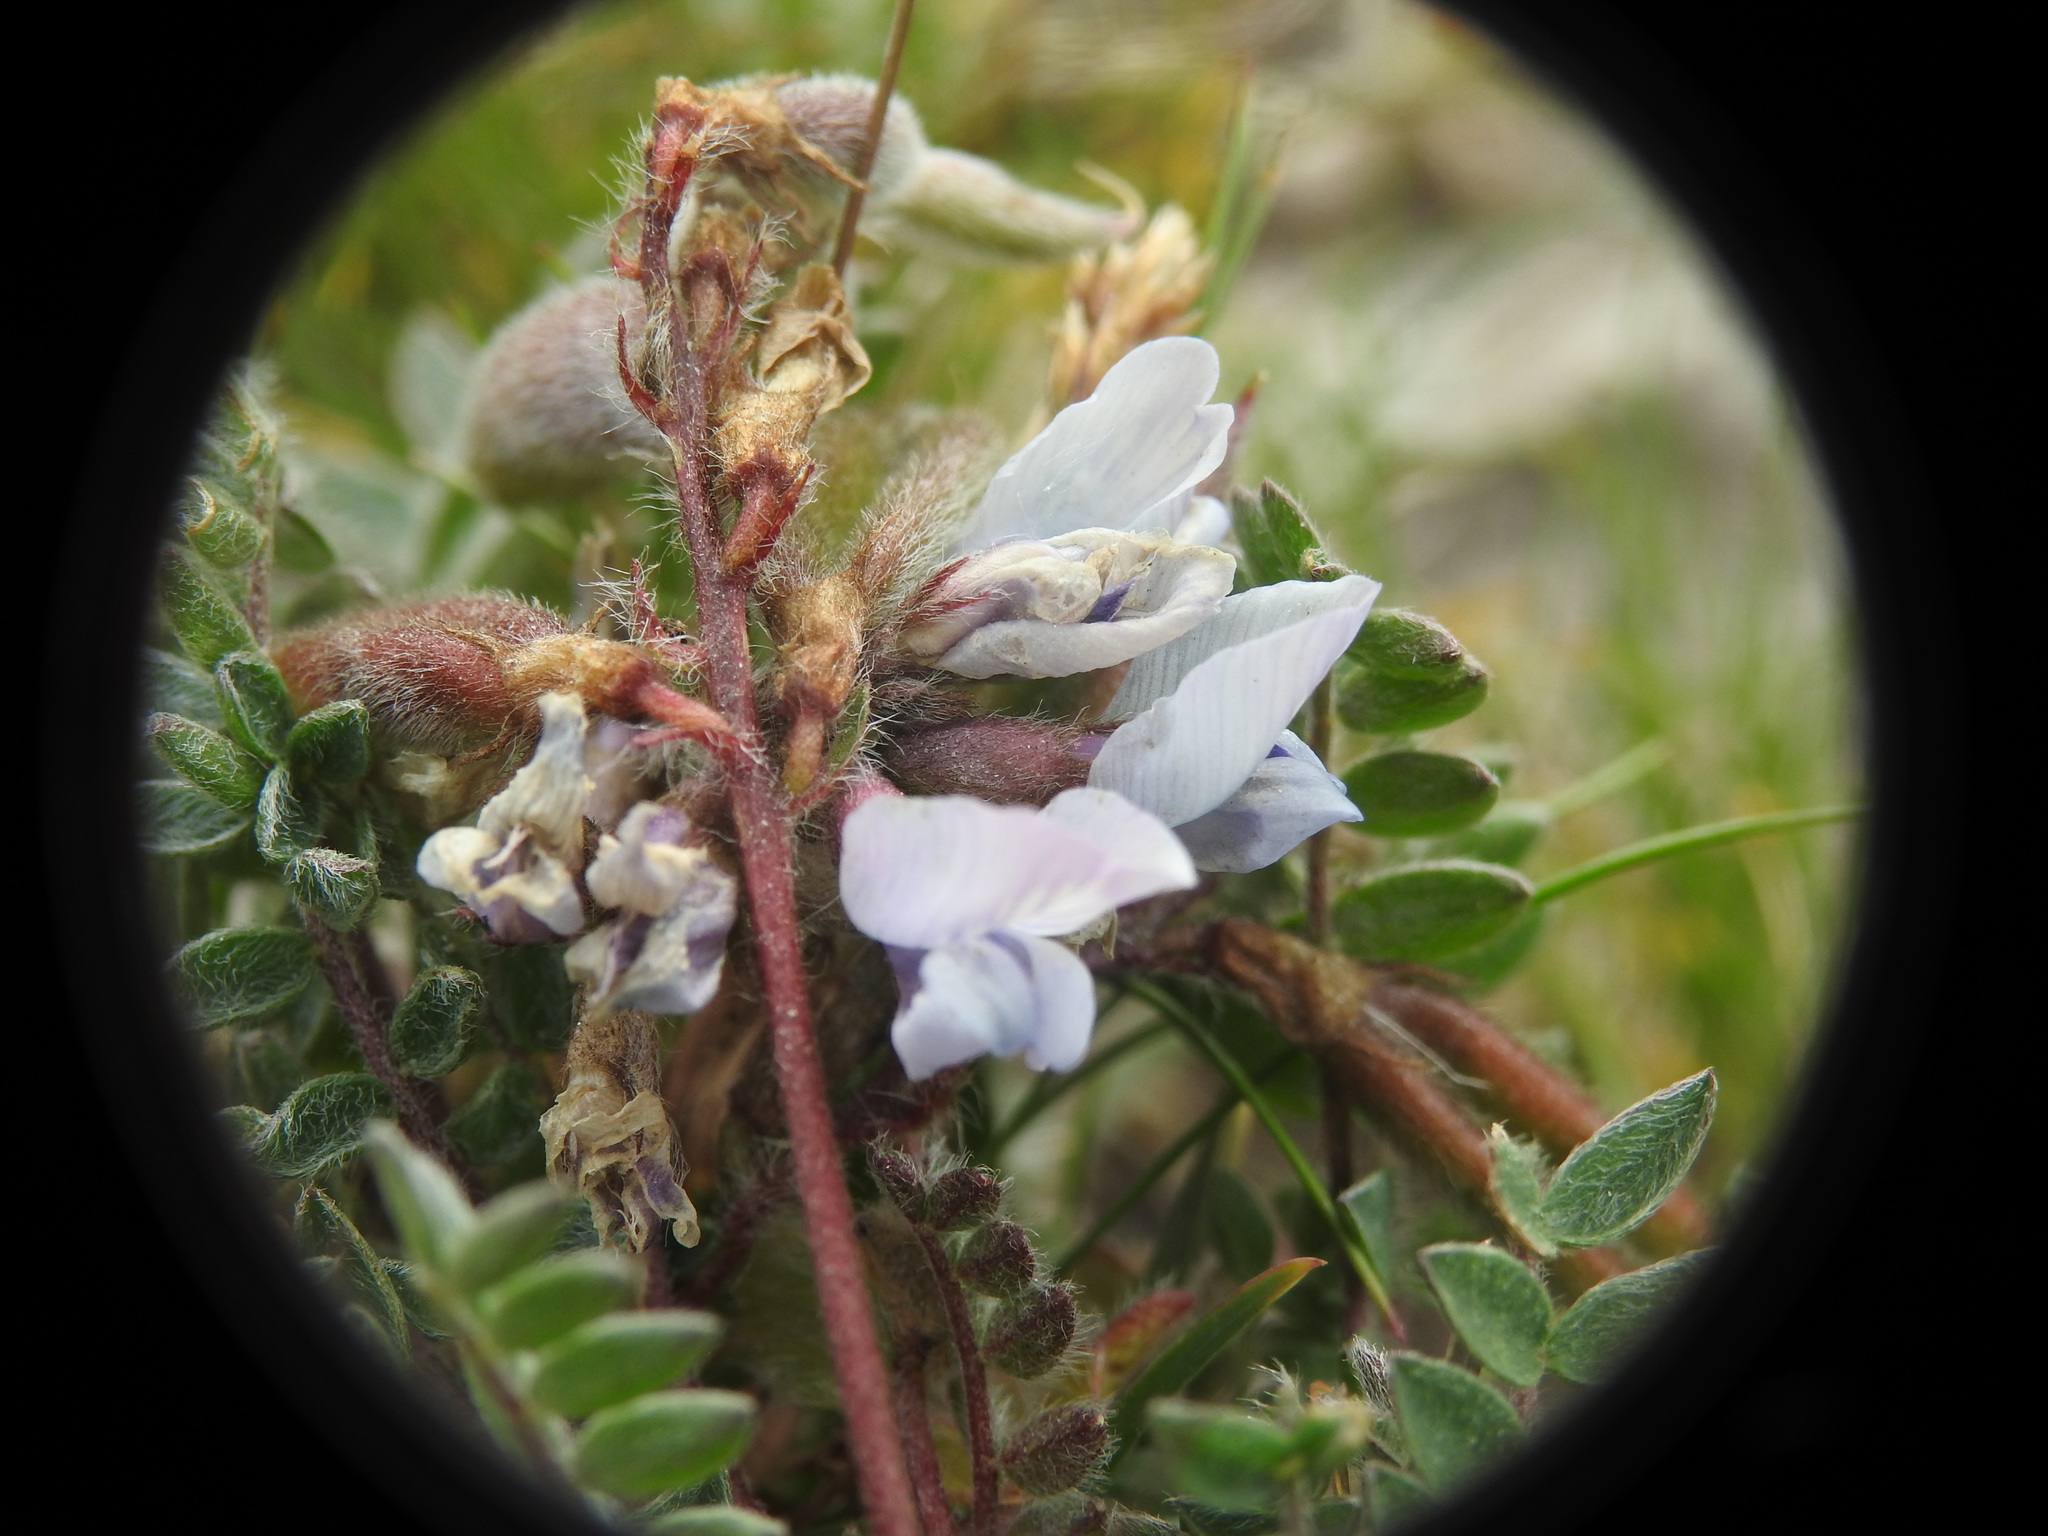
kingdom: Plantae
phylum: Tracheophyta
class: Magnoliopsida
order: Fabales
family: Fabaceae
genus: Oxytropis
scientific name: Oxytropis helvetica
